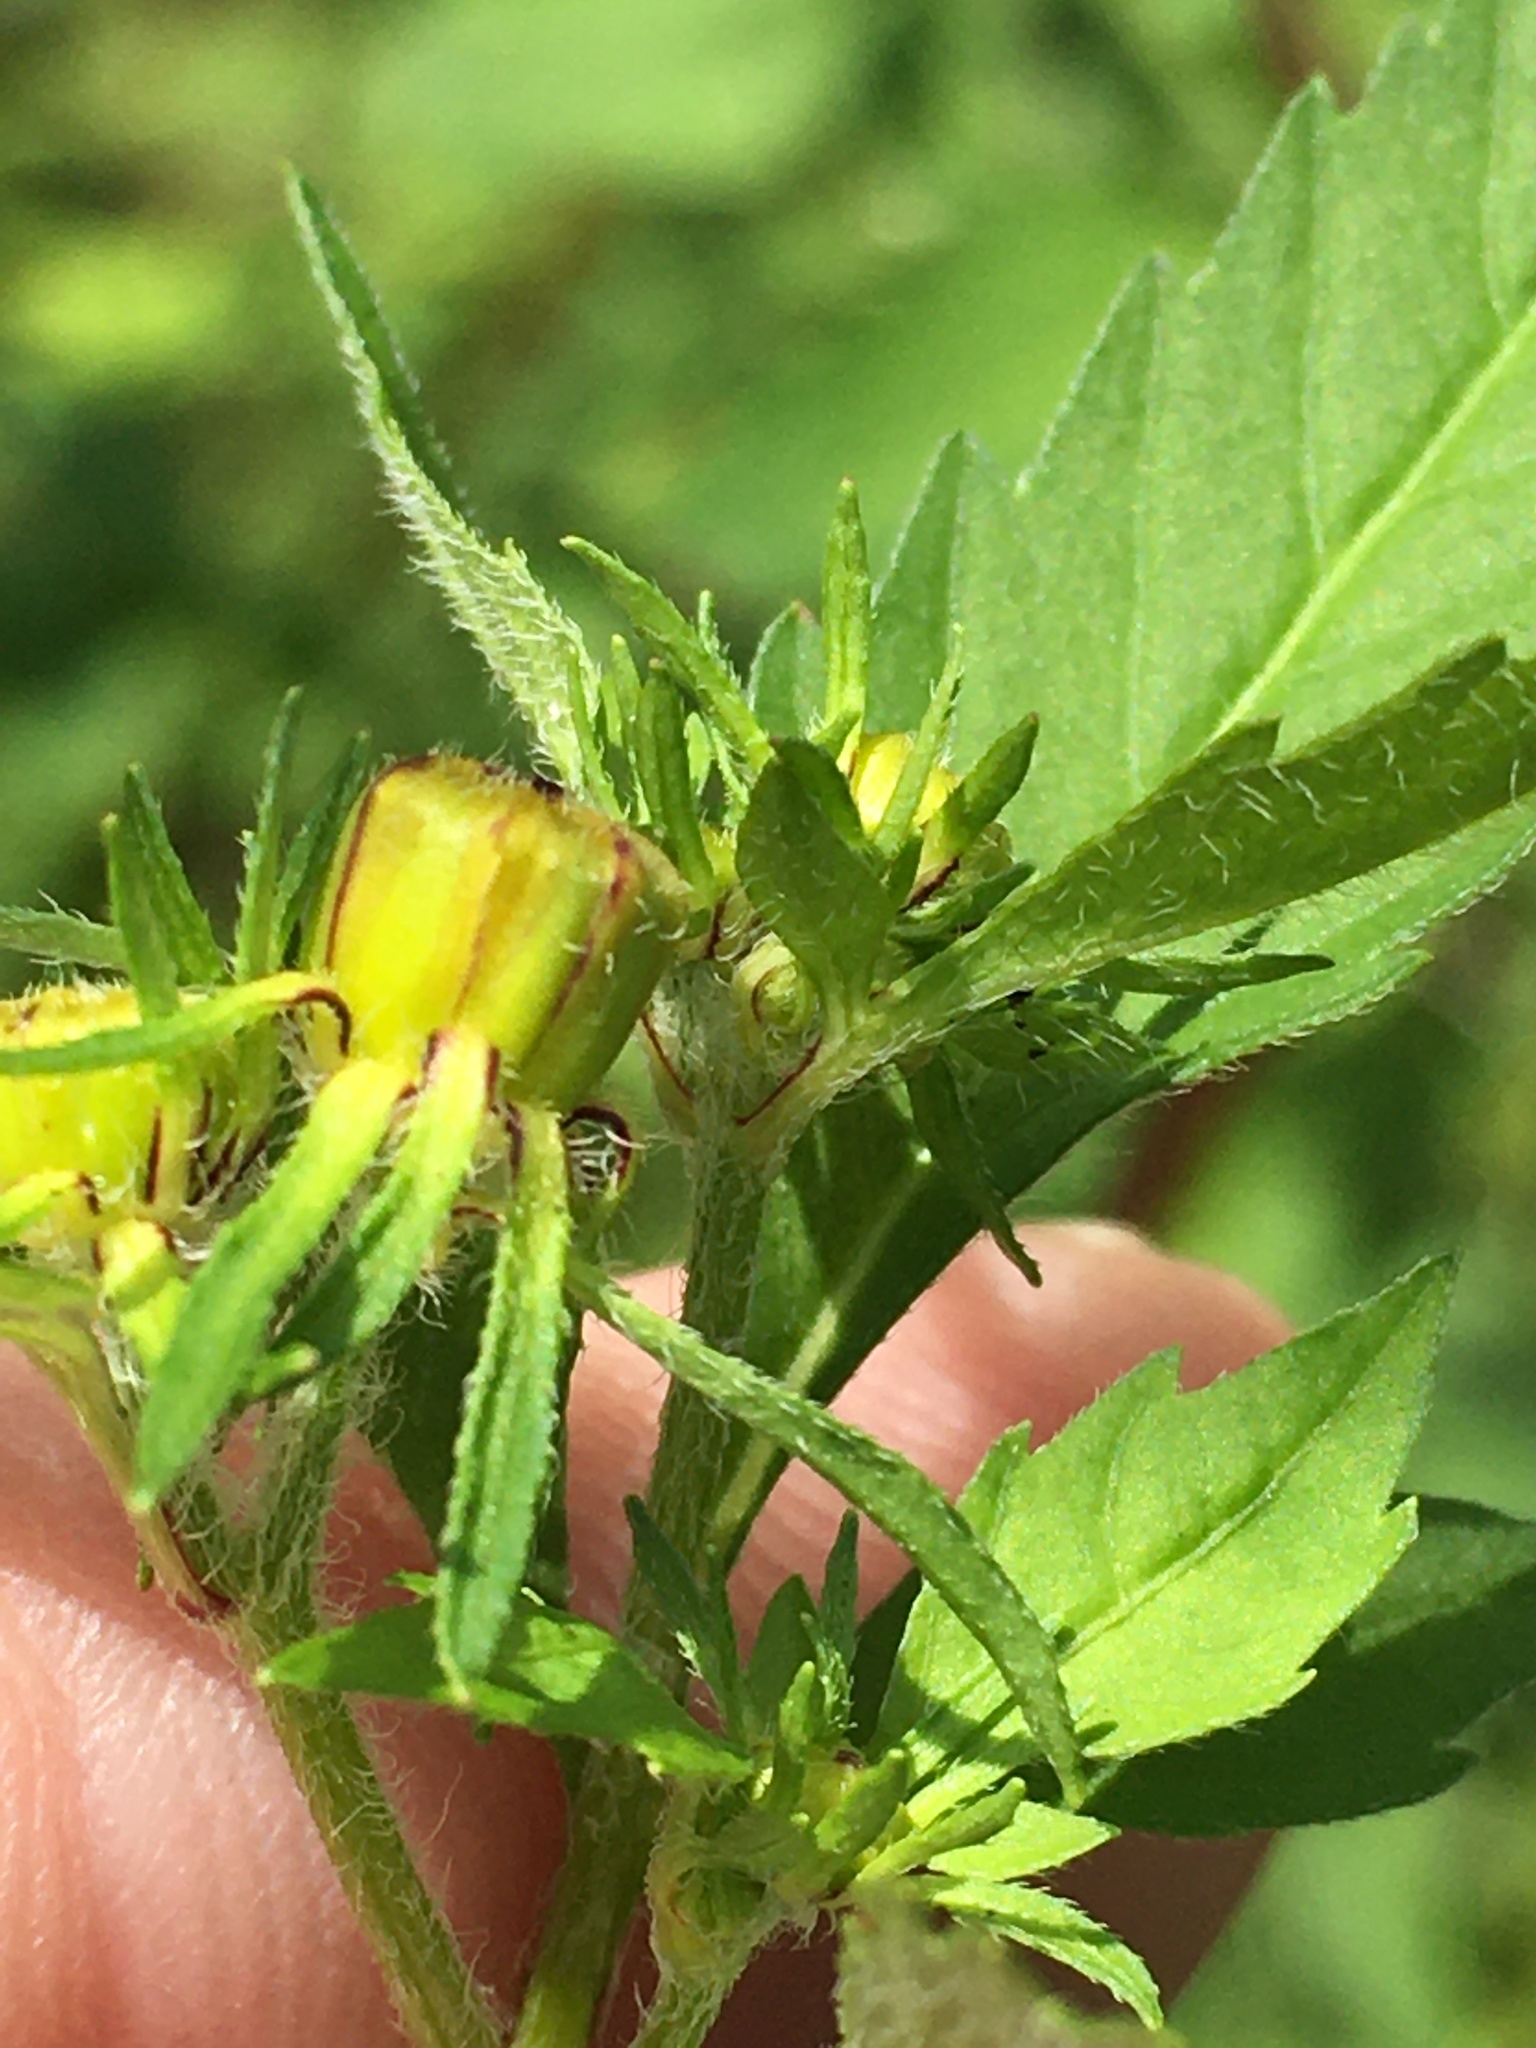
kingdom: Plantae
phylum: Tracheophyta
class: Magnoliopsida
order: Asterales
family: Asteraceae
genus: Bidens
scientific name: Bidens aristosa
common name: Western tickseed
